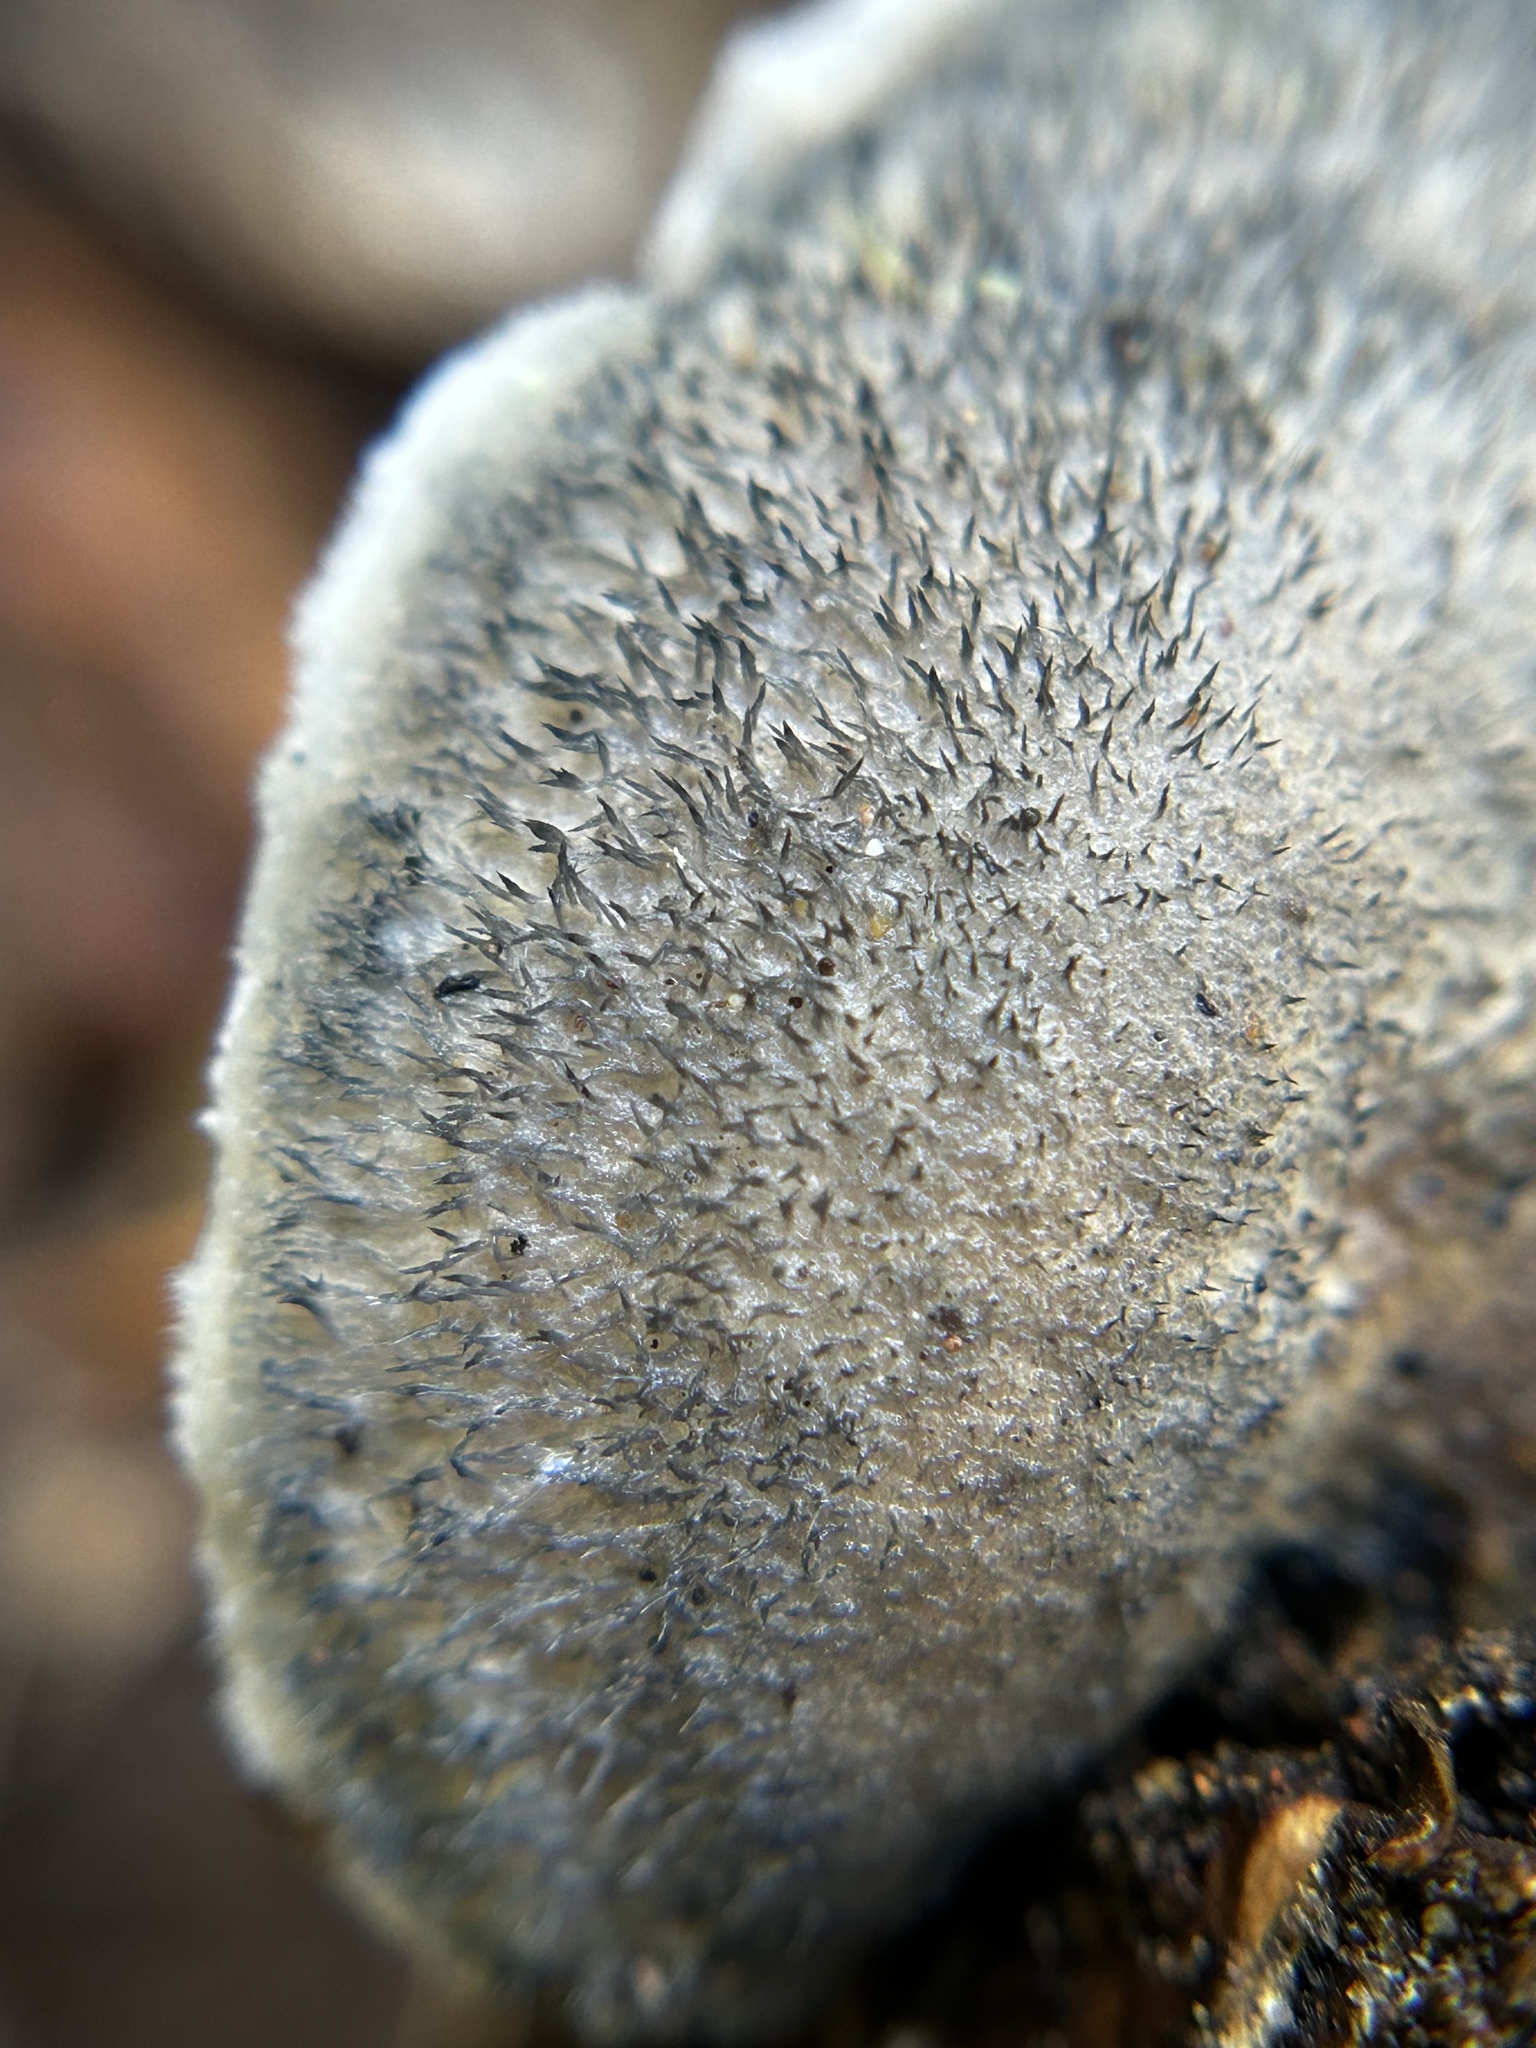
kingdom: Fungi
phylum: Basidiomycota
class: Agaricomycetes
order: Polyporales
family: Polyporaceae
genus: Cyanosporus
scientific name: Cyanosporus caesius
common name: Blue cheese polypore
